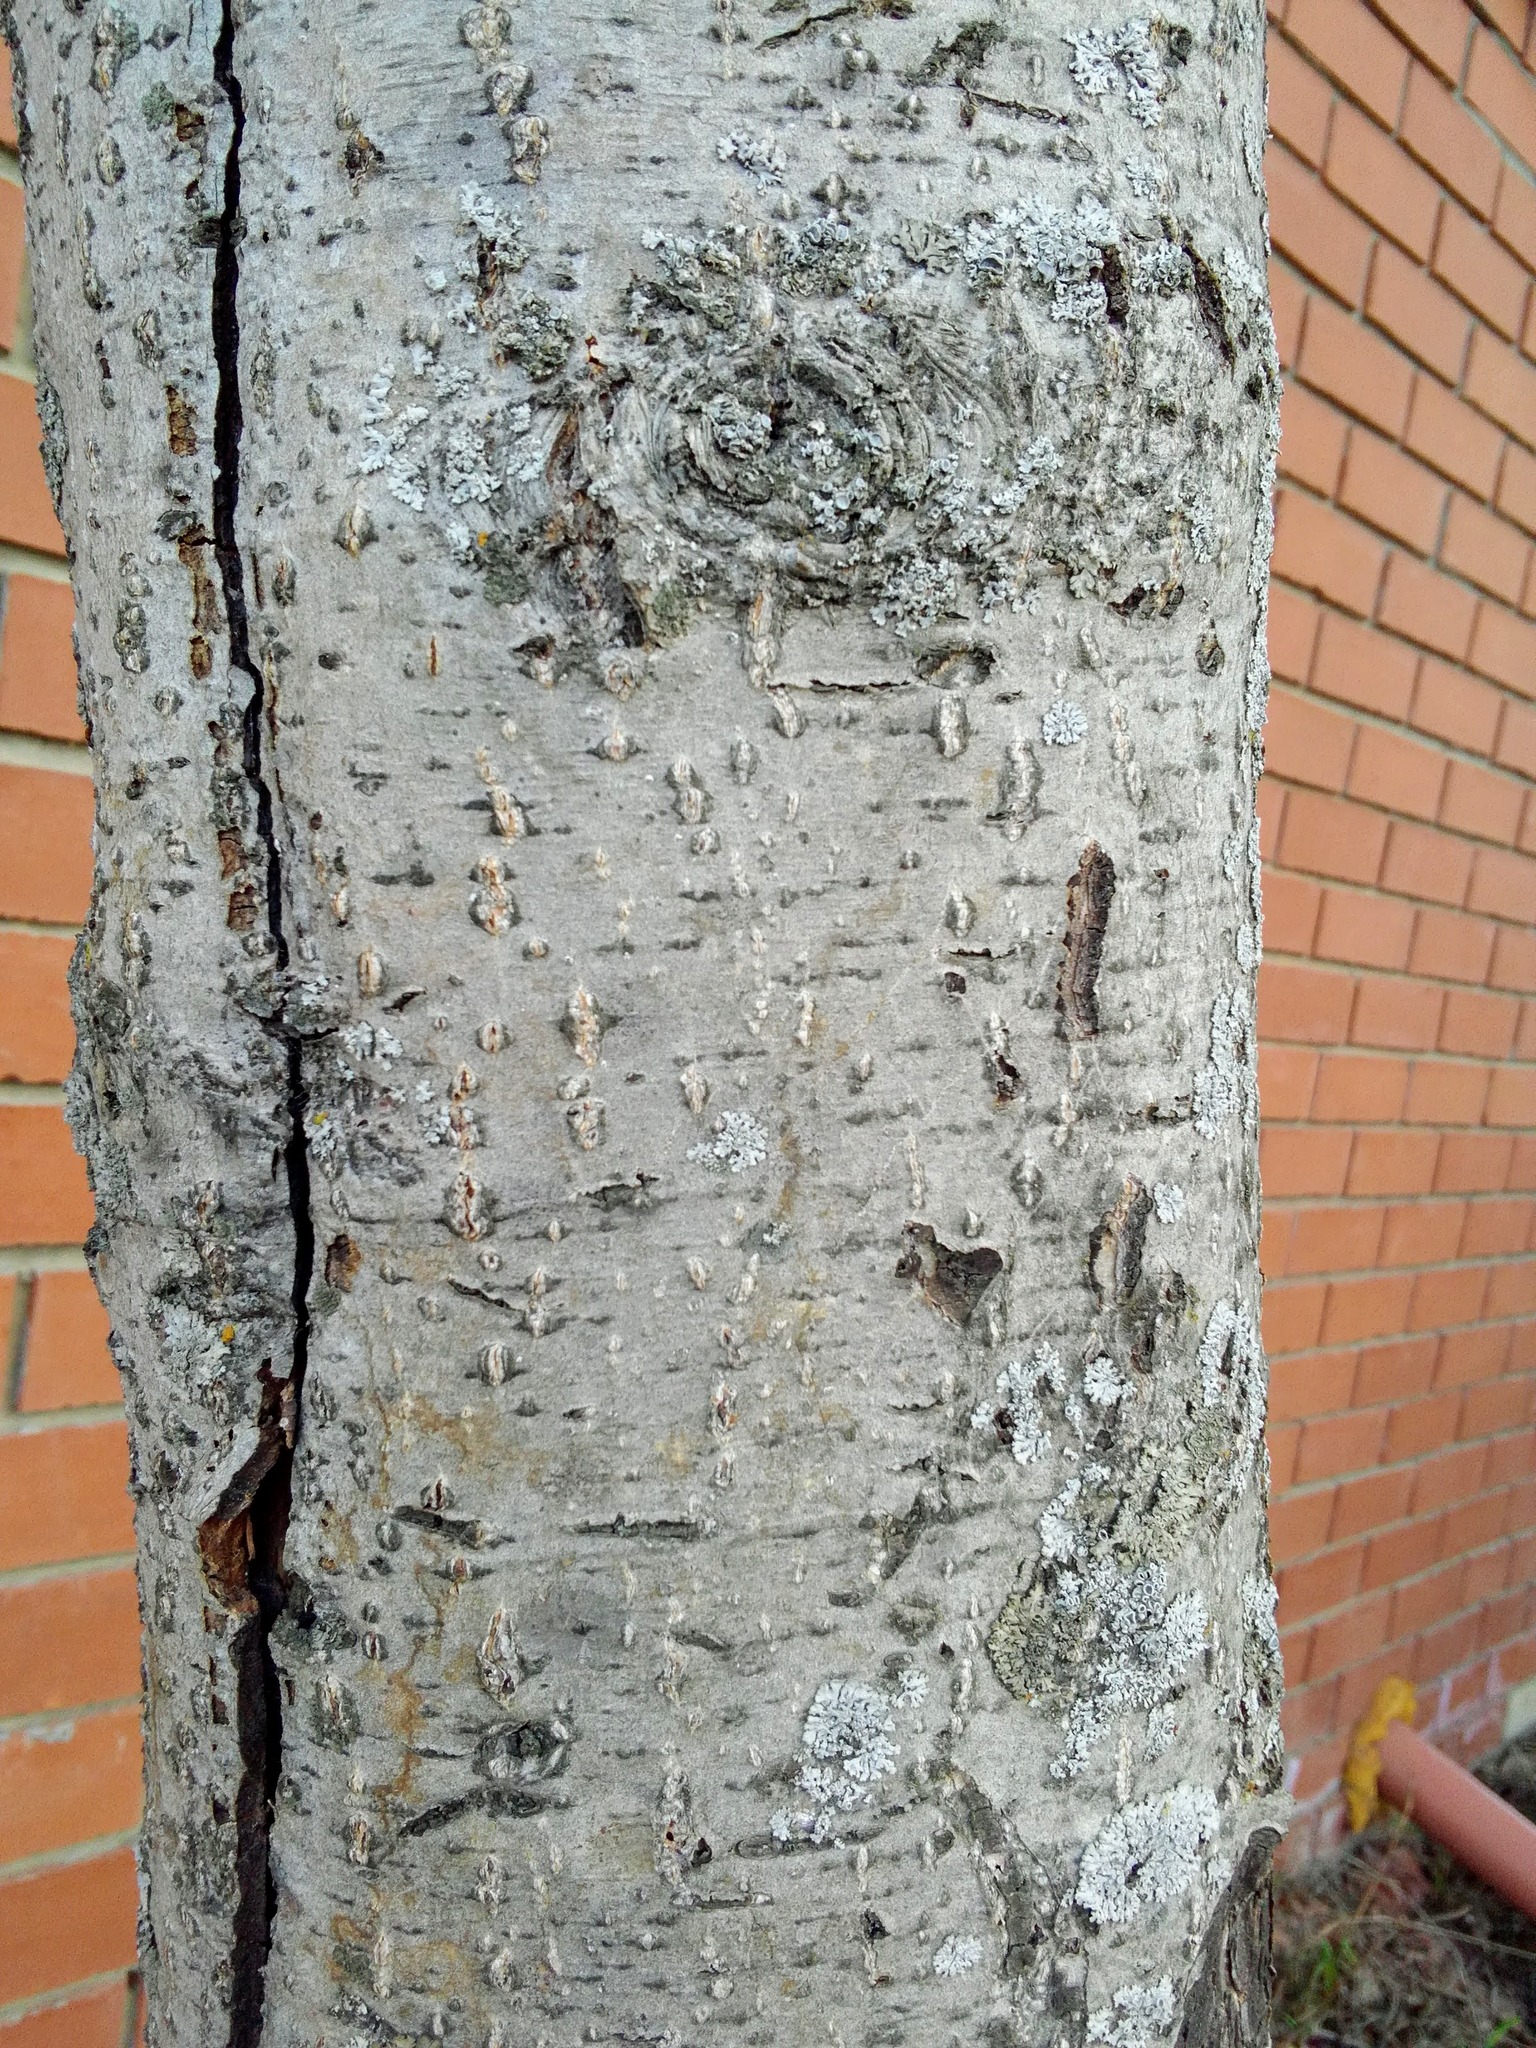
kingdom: Plantae
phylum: Tracheophyta
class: Magnoliopsida
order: Fagales
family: Betulaceae
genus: Alnus
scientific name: Alnus incana
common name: Grey alder
